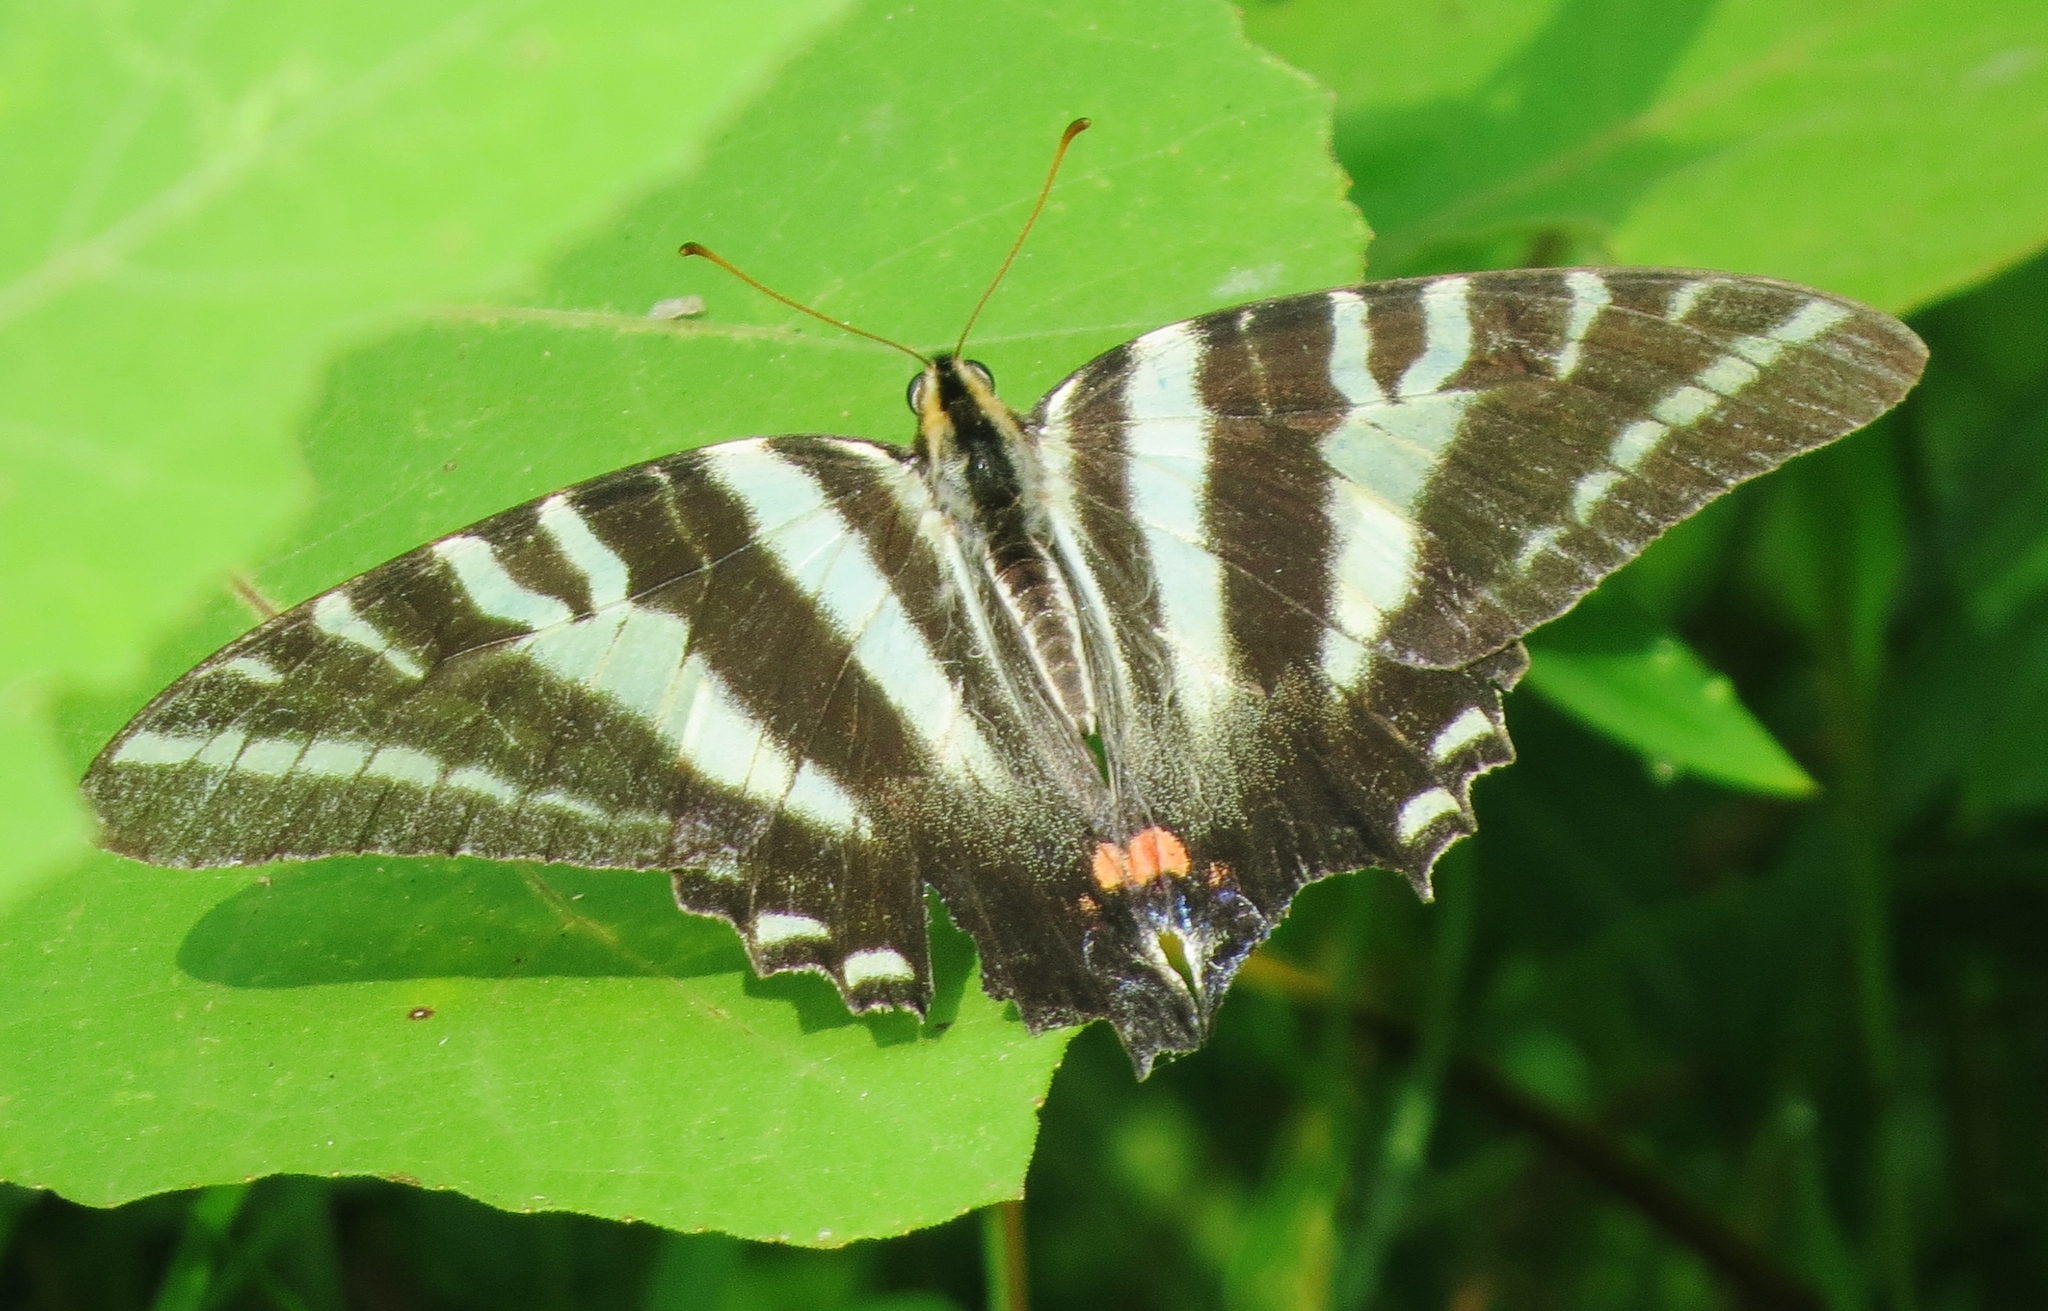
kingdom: Animalia
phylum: Arthropoda
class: Insecta
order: Lepidoptera
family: Papilionidae
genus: Protographium
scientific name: Protographium marcellus
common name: Zebra swallowtail
